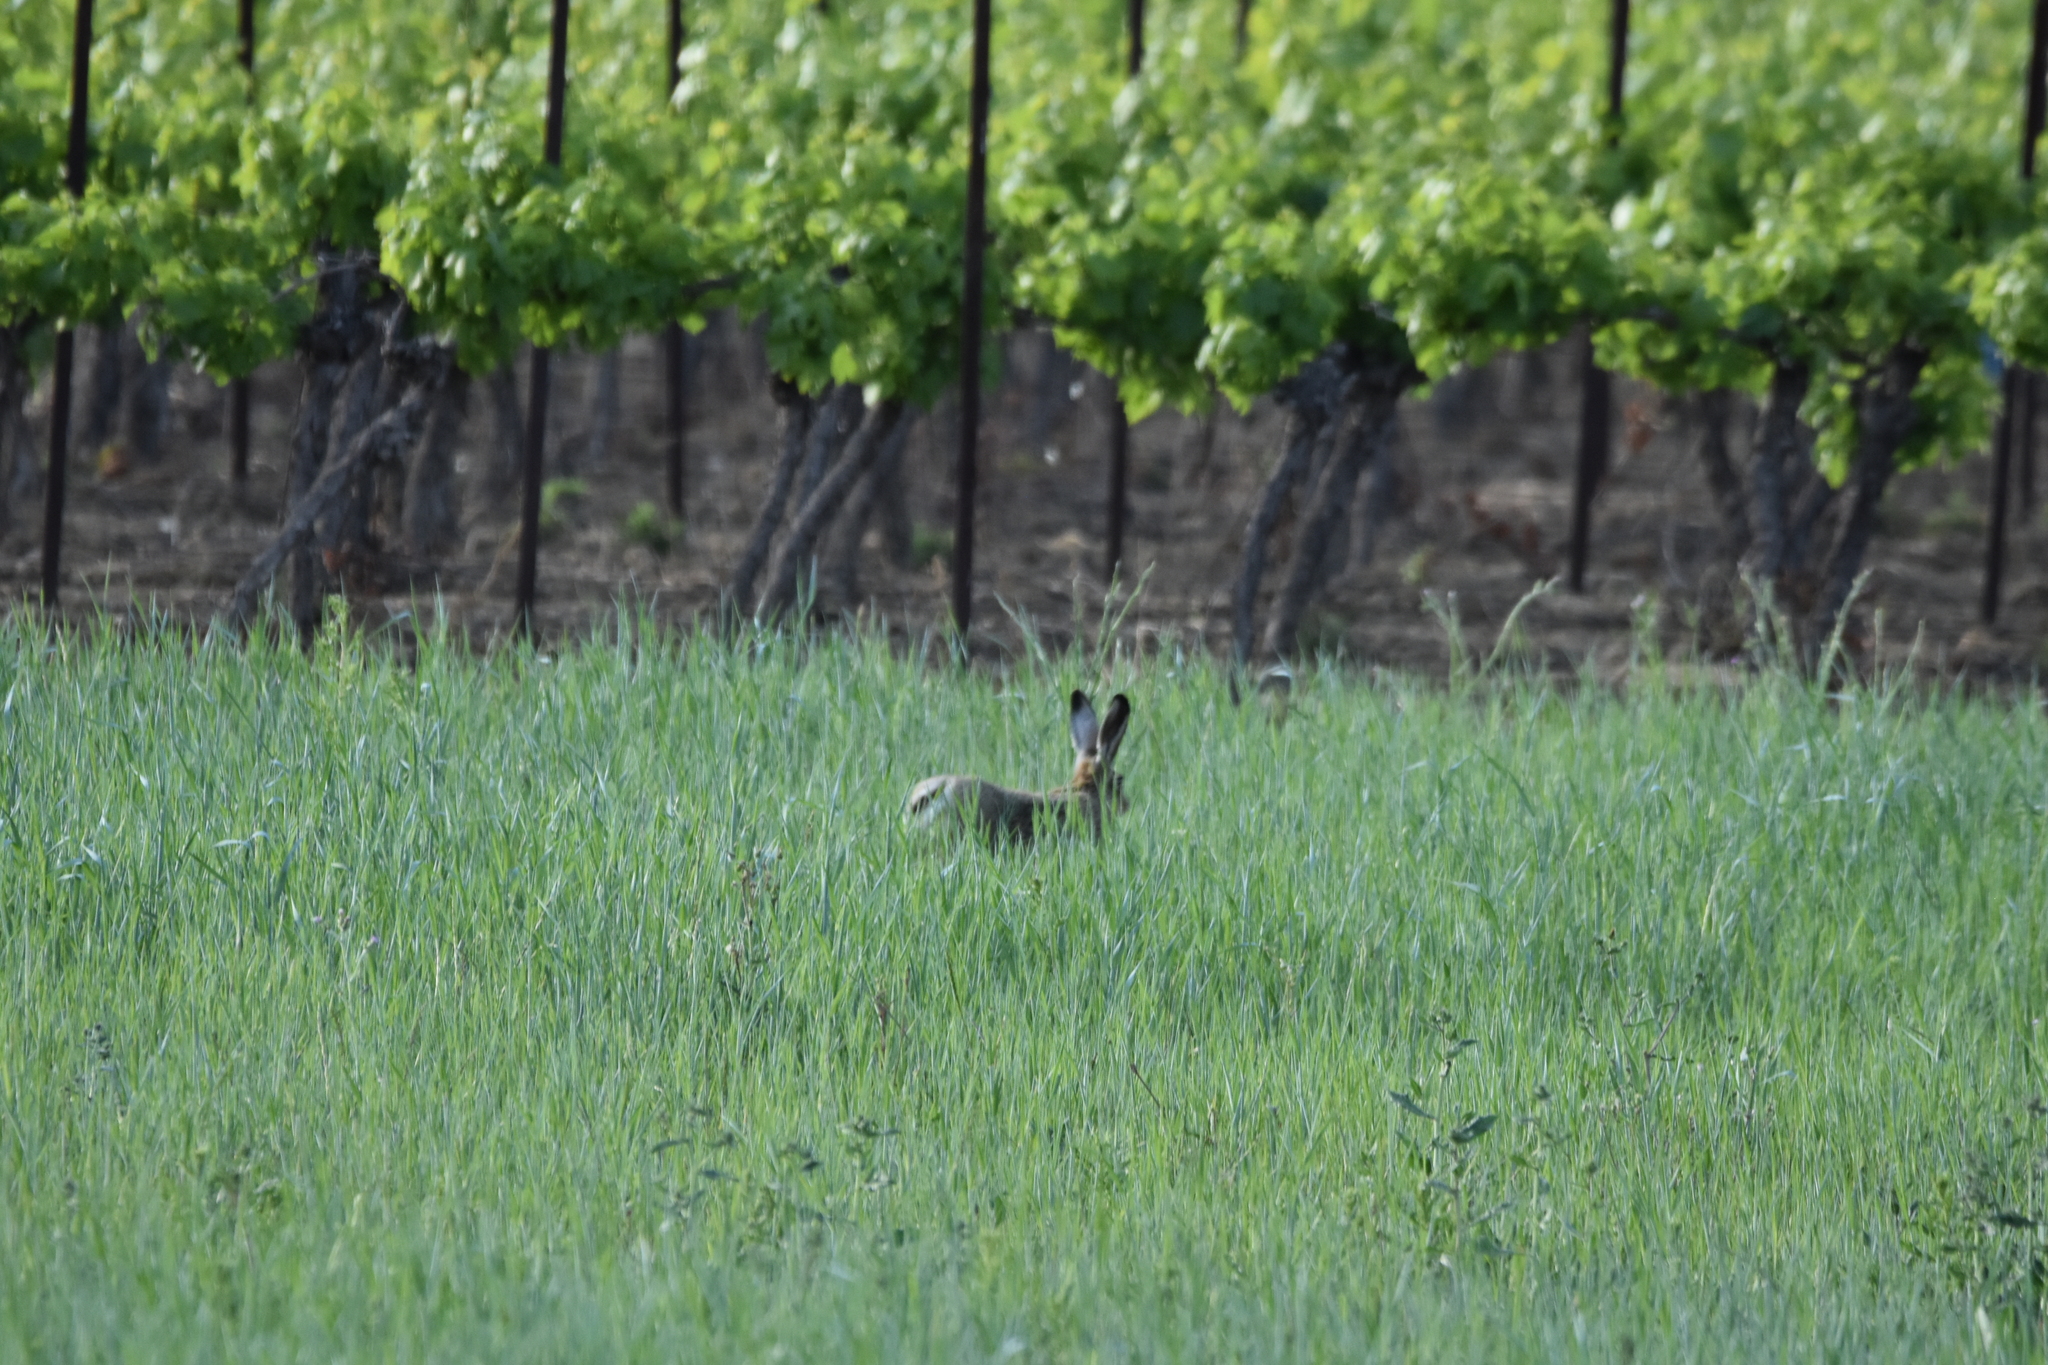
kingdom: Animalia
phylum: Chordata
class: Mammalia
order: Lagomorpha
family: Leporidae
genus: Lepus
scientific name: Lepus europaeus
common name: European hare
